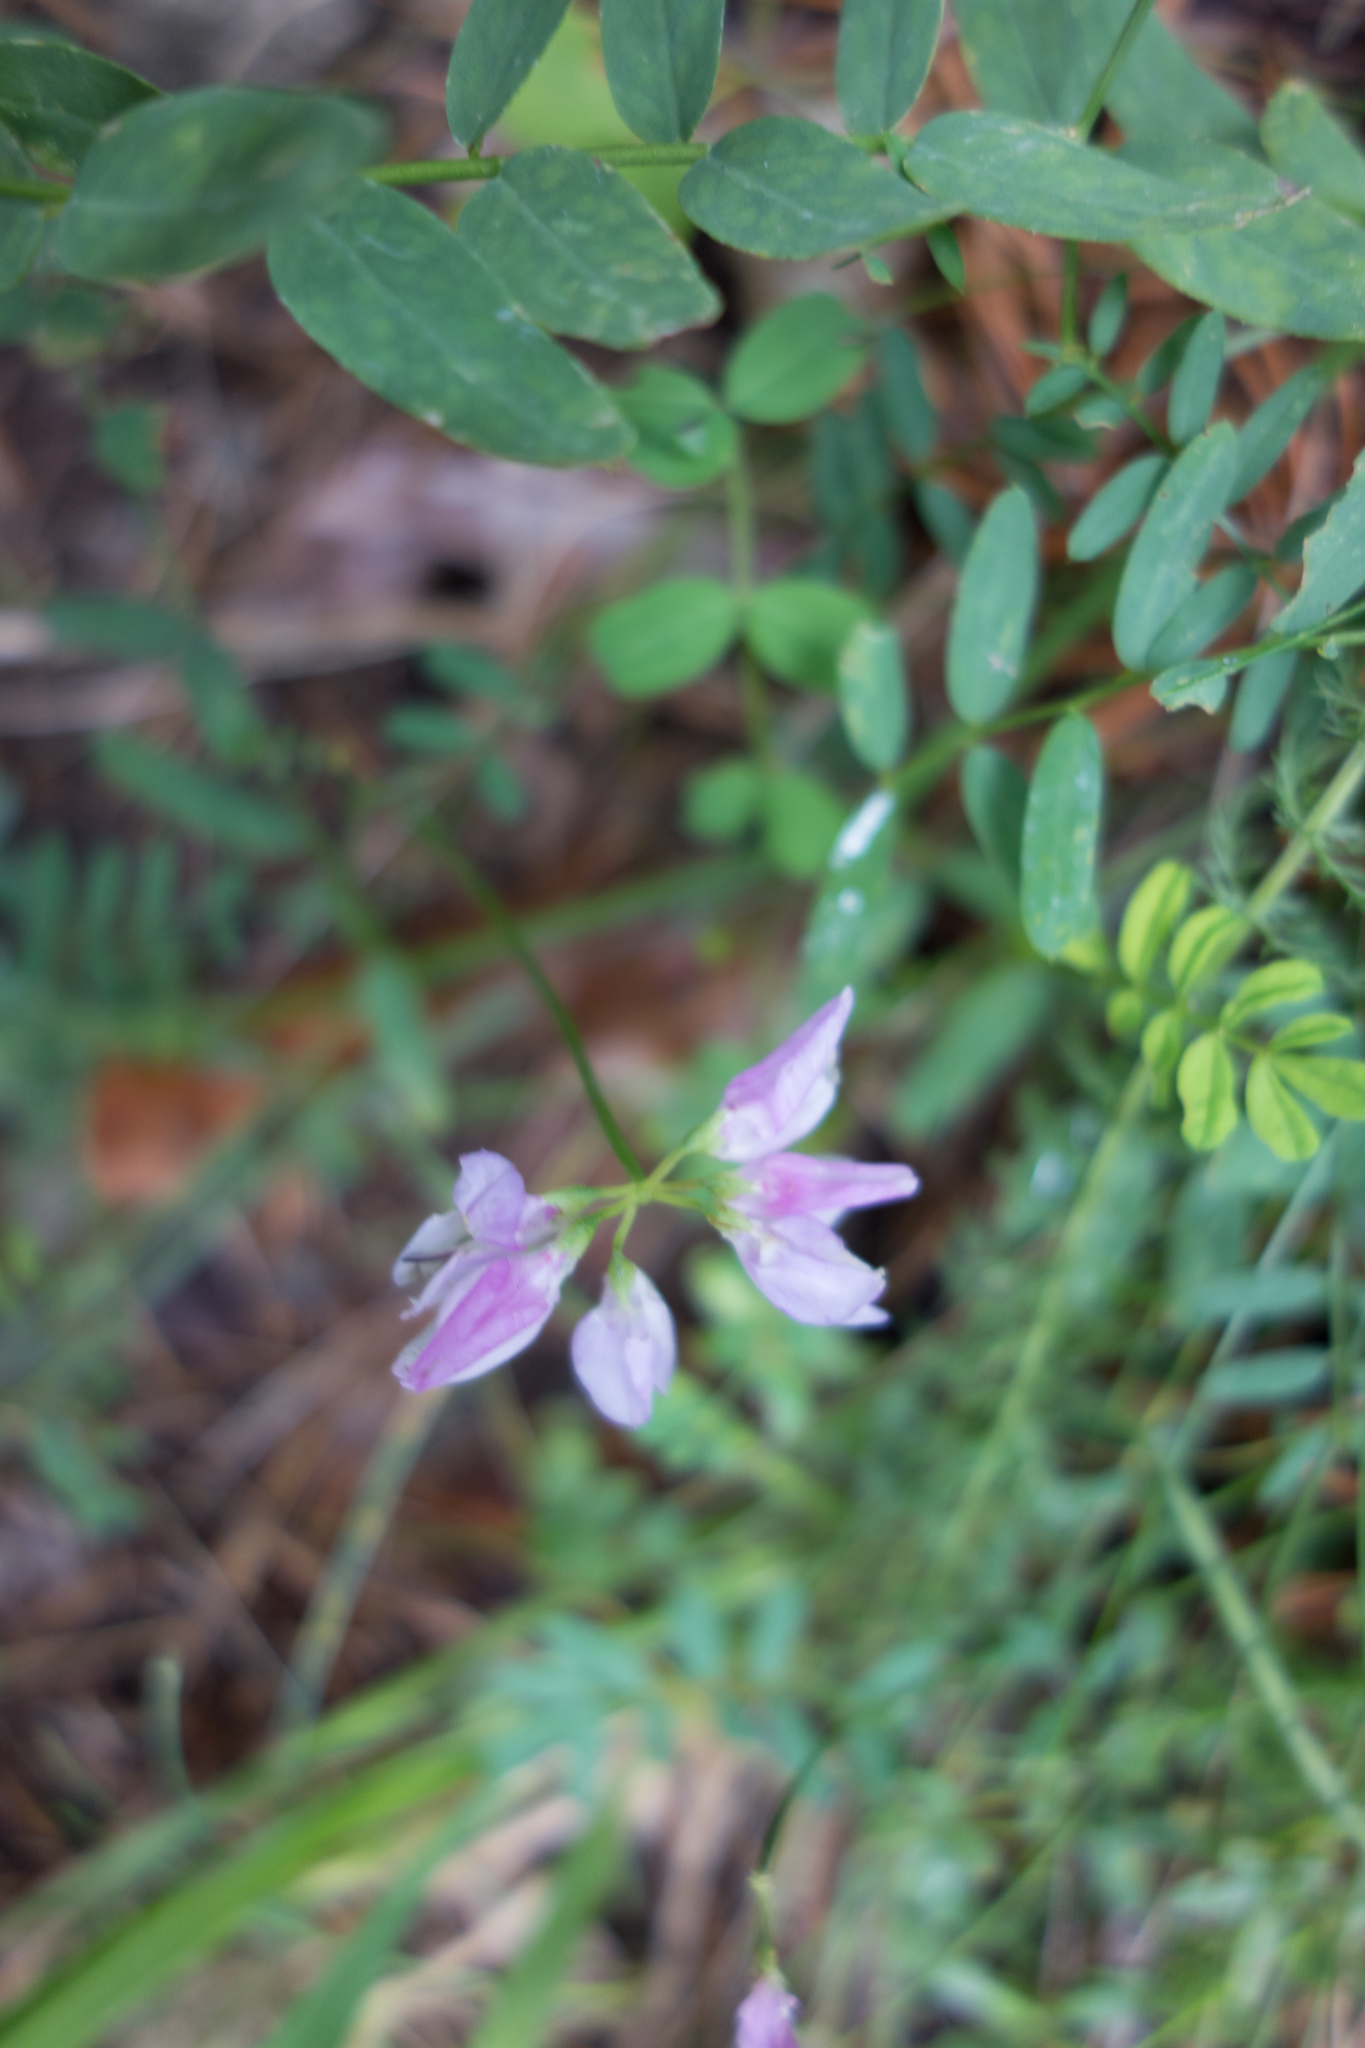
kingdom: Plantae
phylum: Tracheophyta
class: Magnoliopsida
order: Fabales
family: Fabaceae
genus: Coronilla
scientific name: Coronilla varia
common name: Crownvetch
